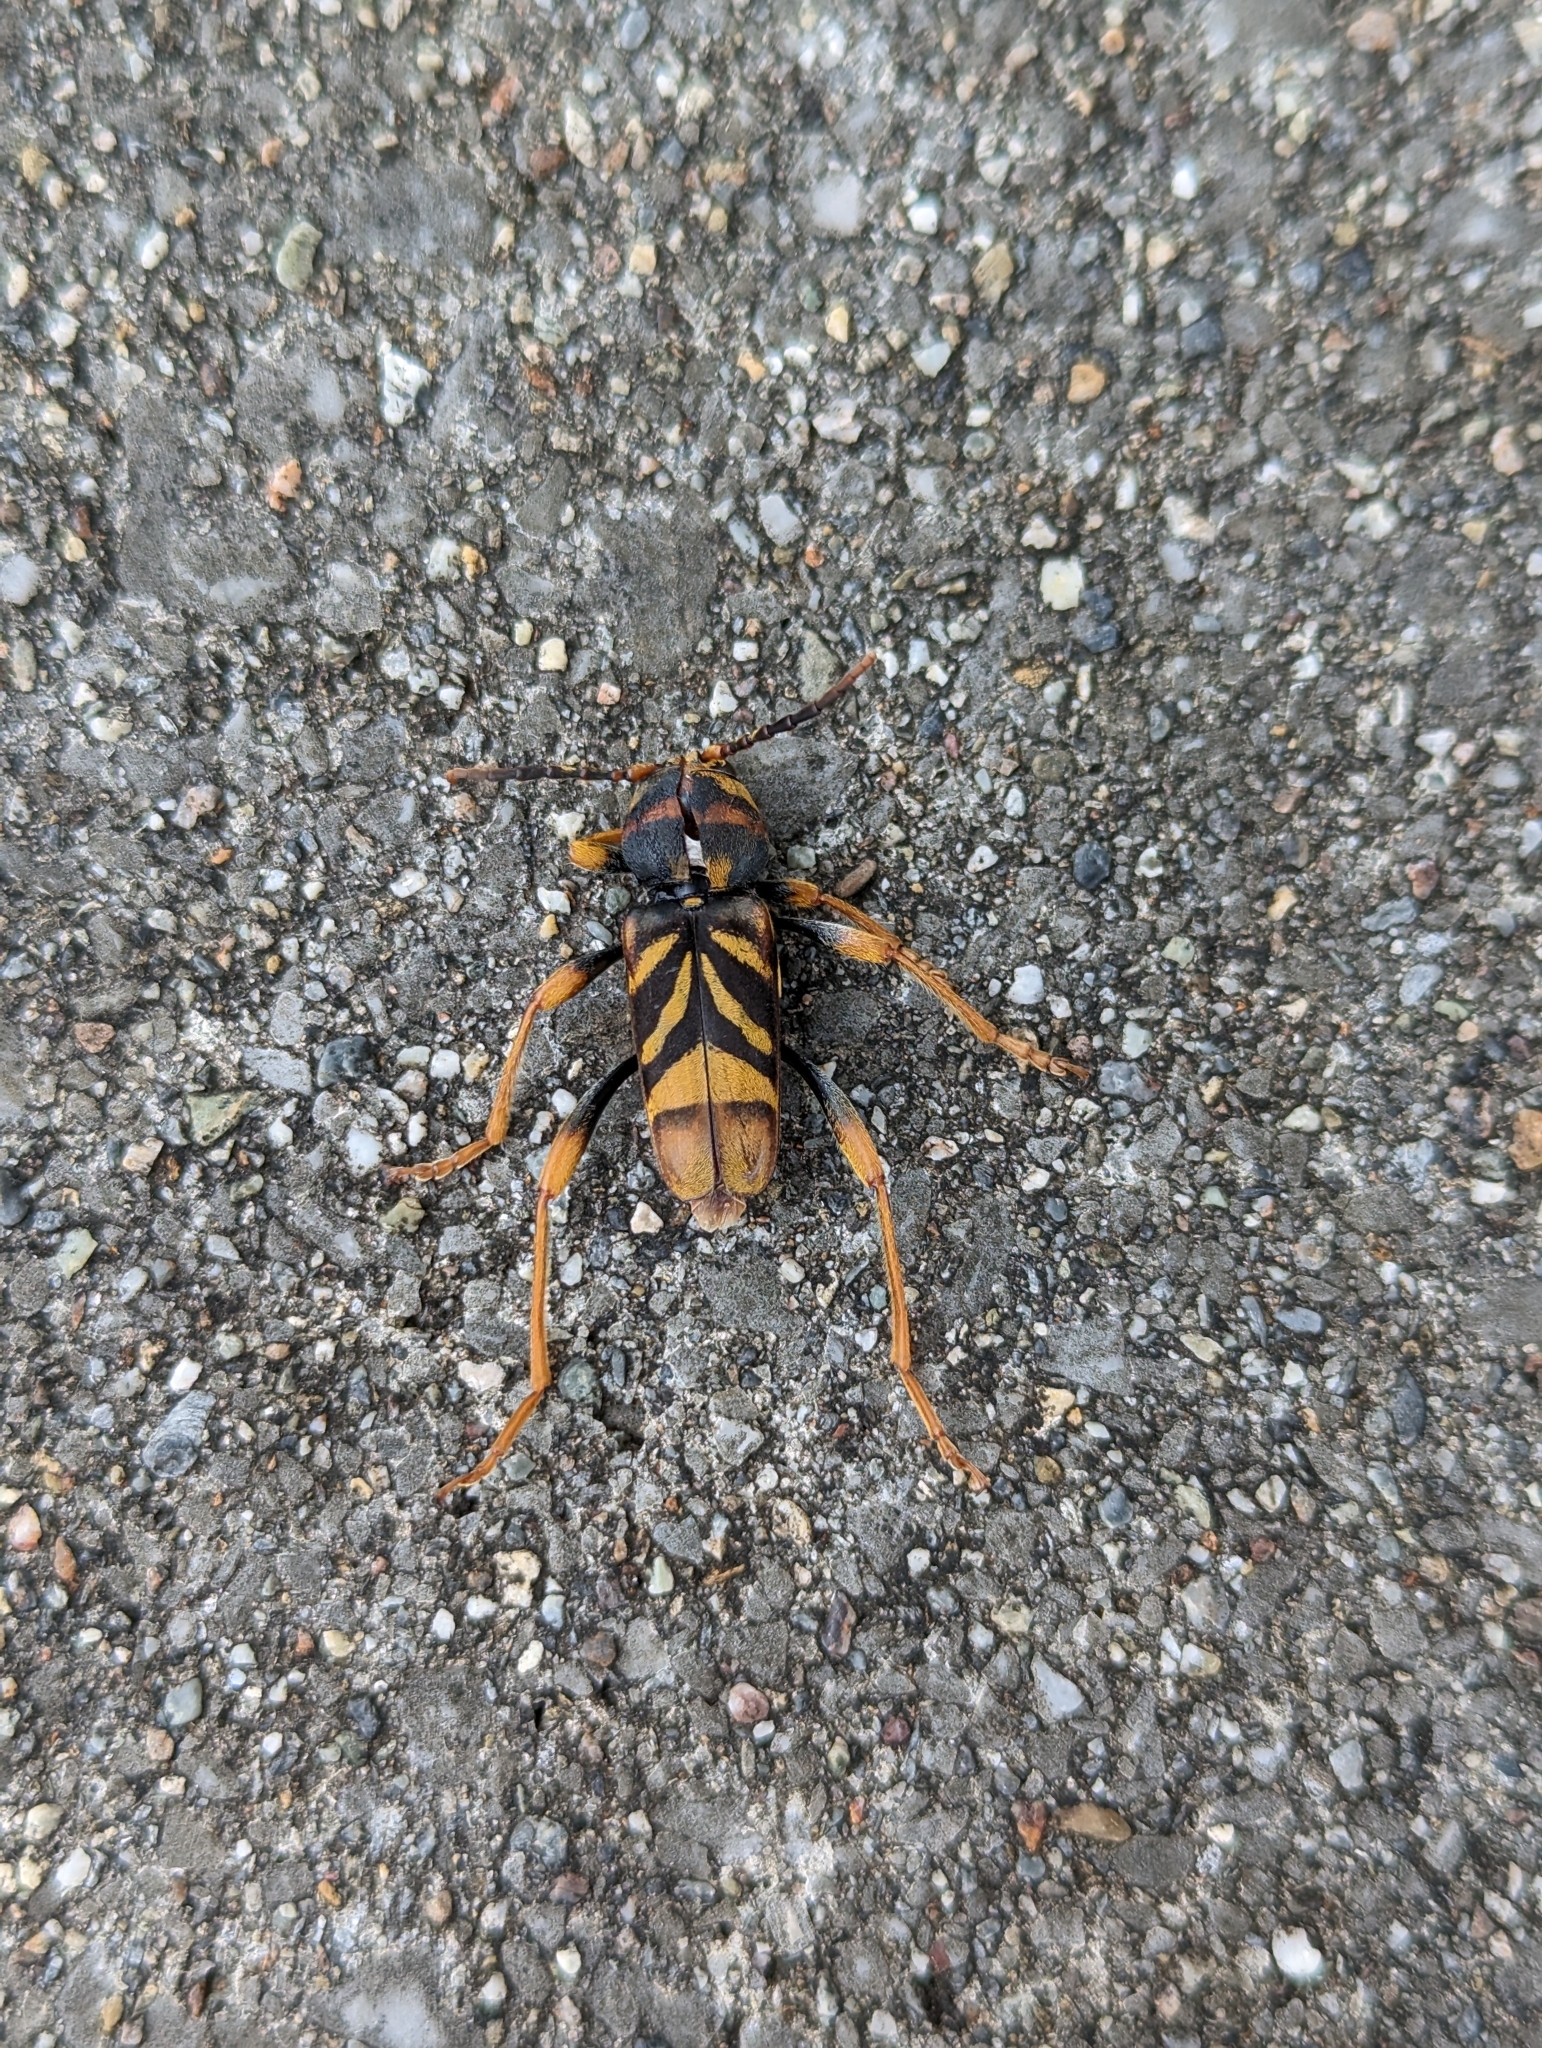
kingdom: Animalia
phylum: Arthropoda
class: Insecta
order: Coleoptera
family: Cerambycidae
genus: Xylotrechus
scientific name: Xylotrechus chinensis
